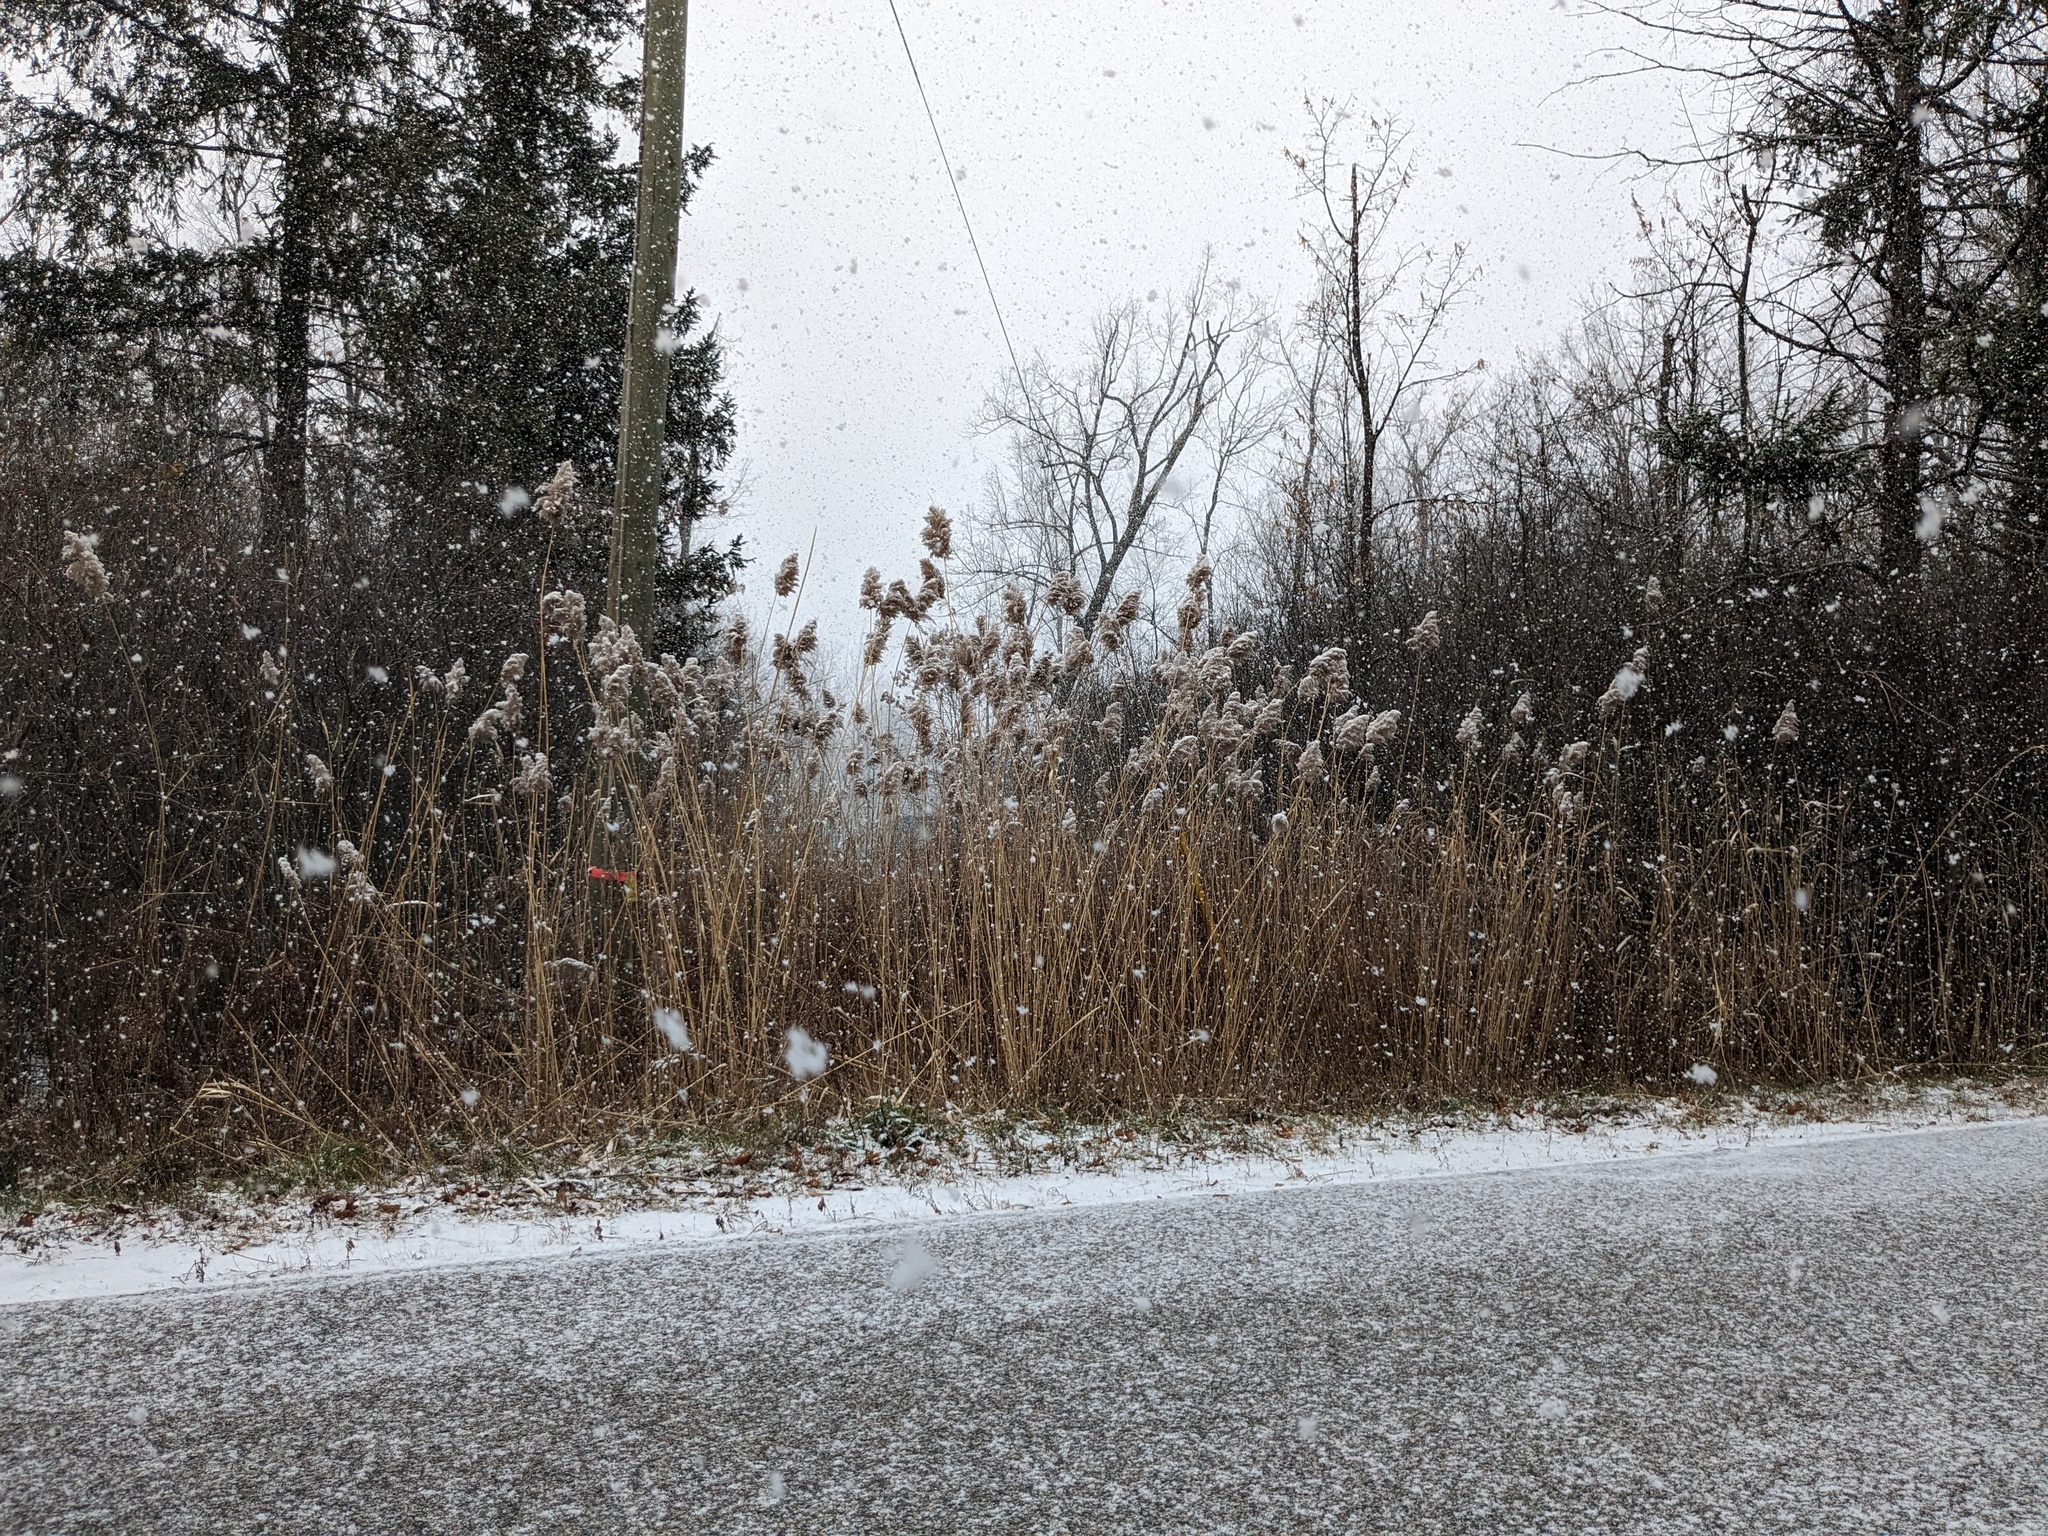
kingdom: Plantae
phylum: Tracheophyta
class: Liliopsida
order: Poales
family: Poaceae
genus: Phragmites
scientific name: Phragmites australis
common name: Common reed
